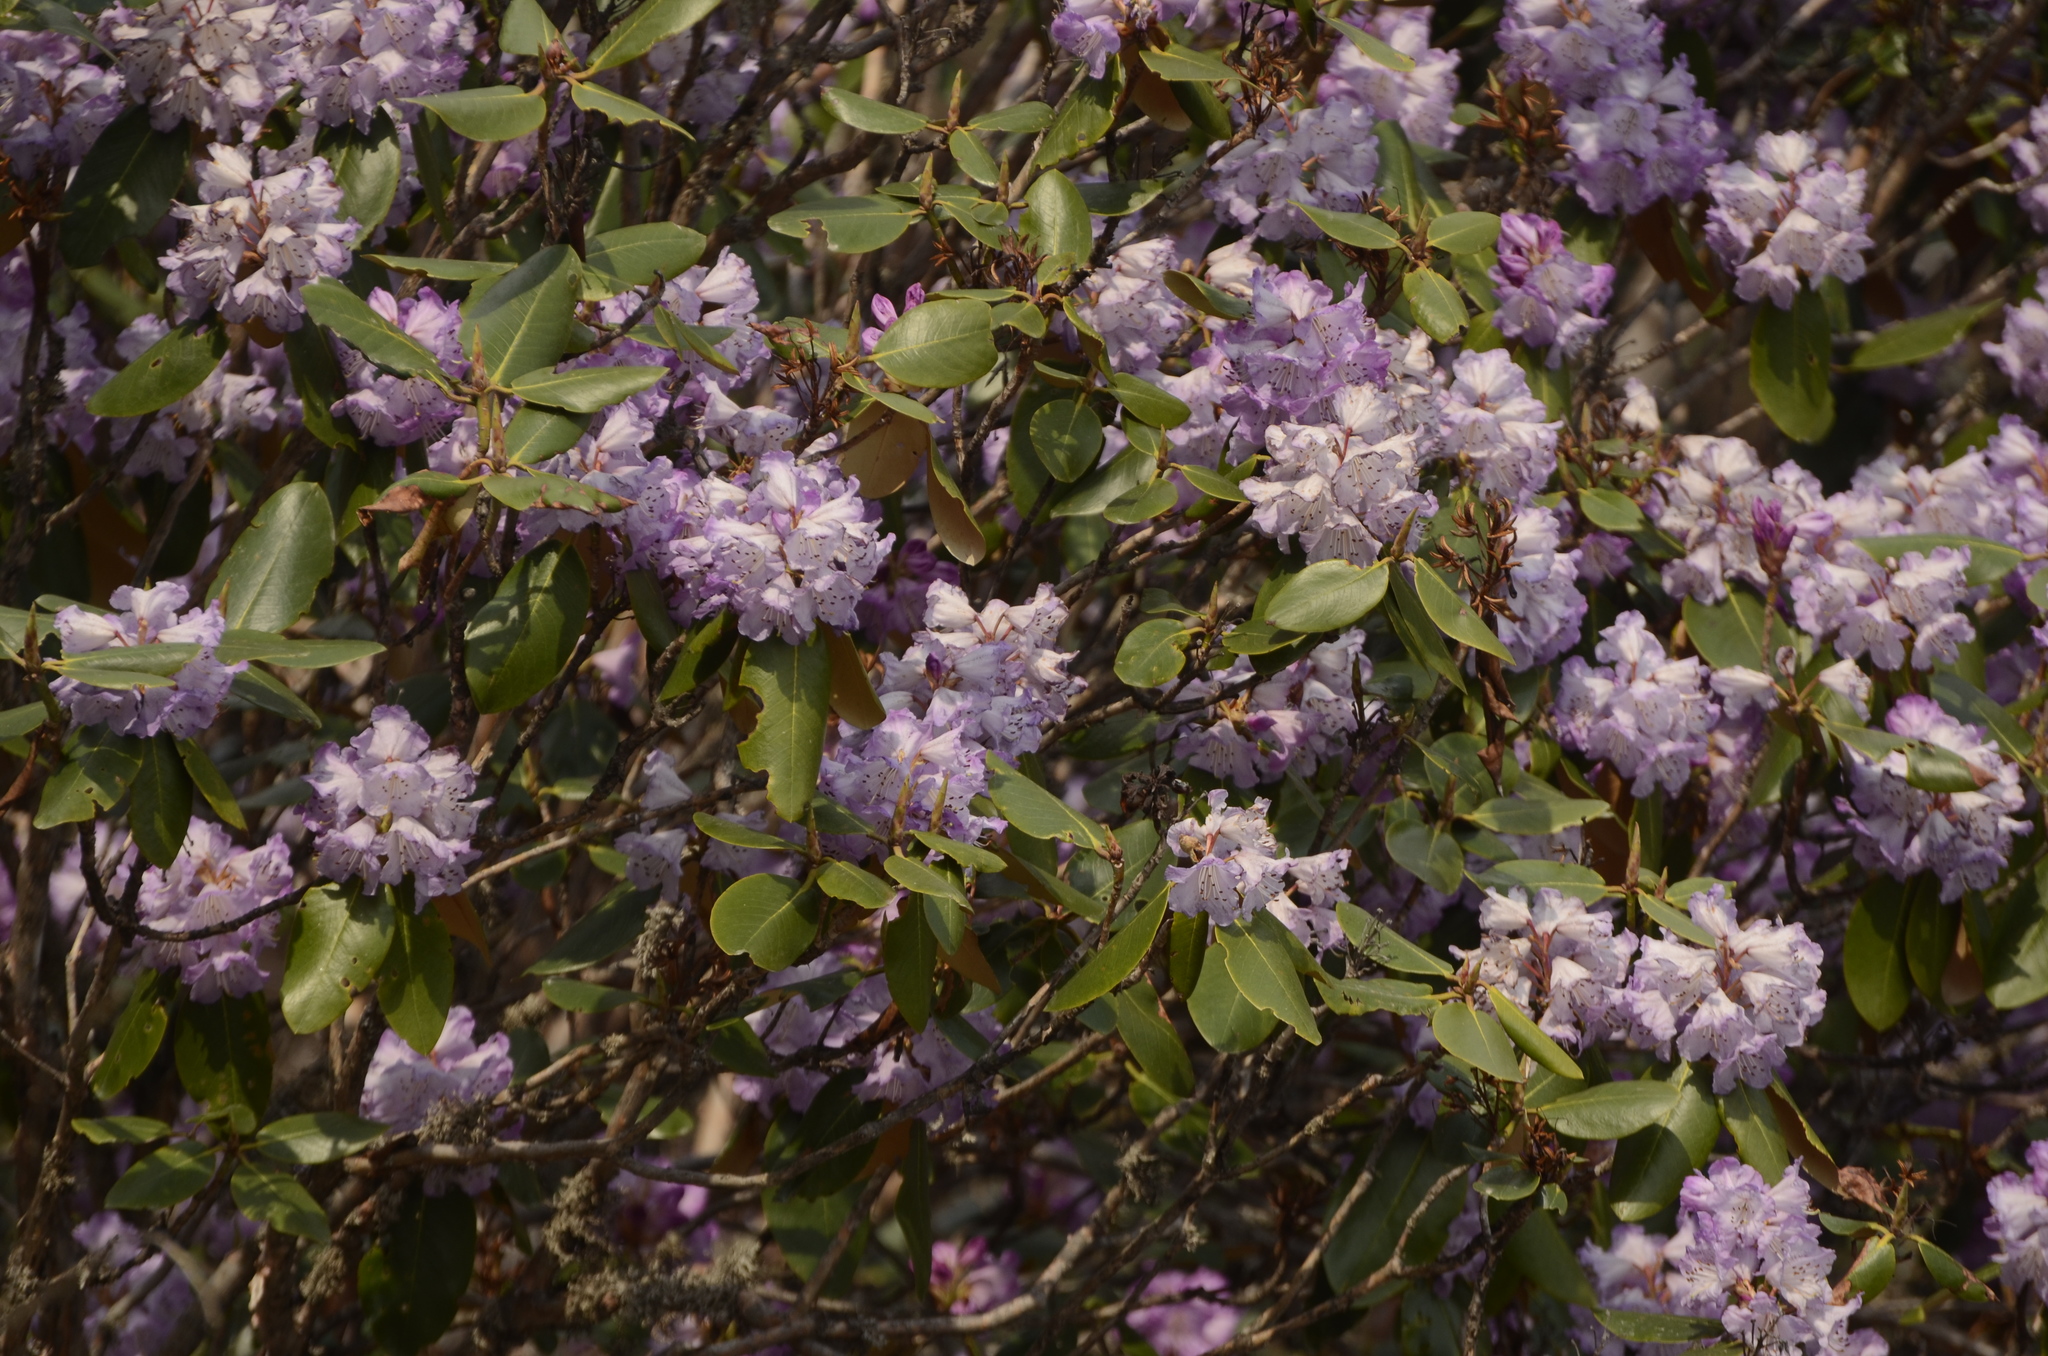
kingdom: Plantae
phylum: Tracheophyta
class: Magnoliopsida
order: Ericales
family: Ericaceae
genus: Rhododendron
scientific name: Rhododendron campanulatum
